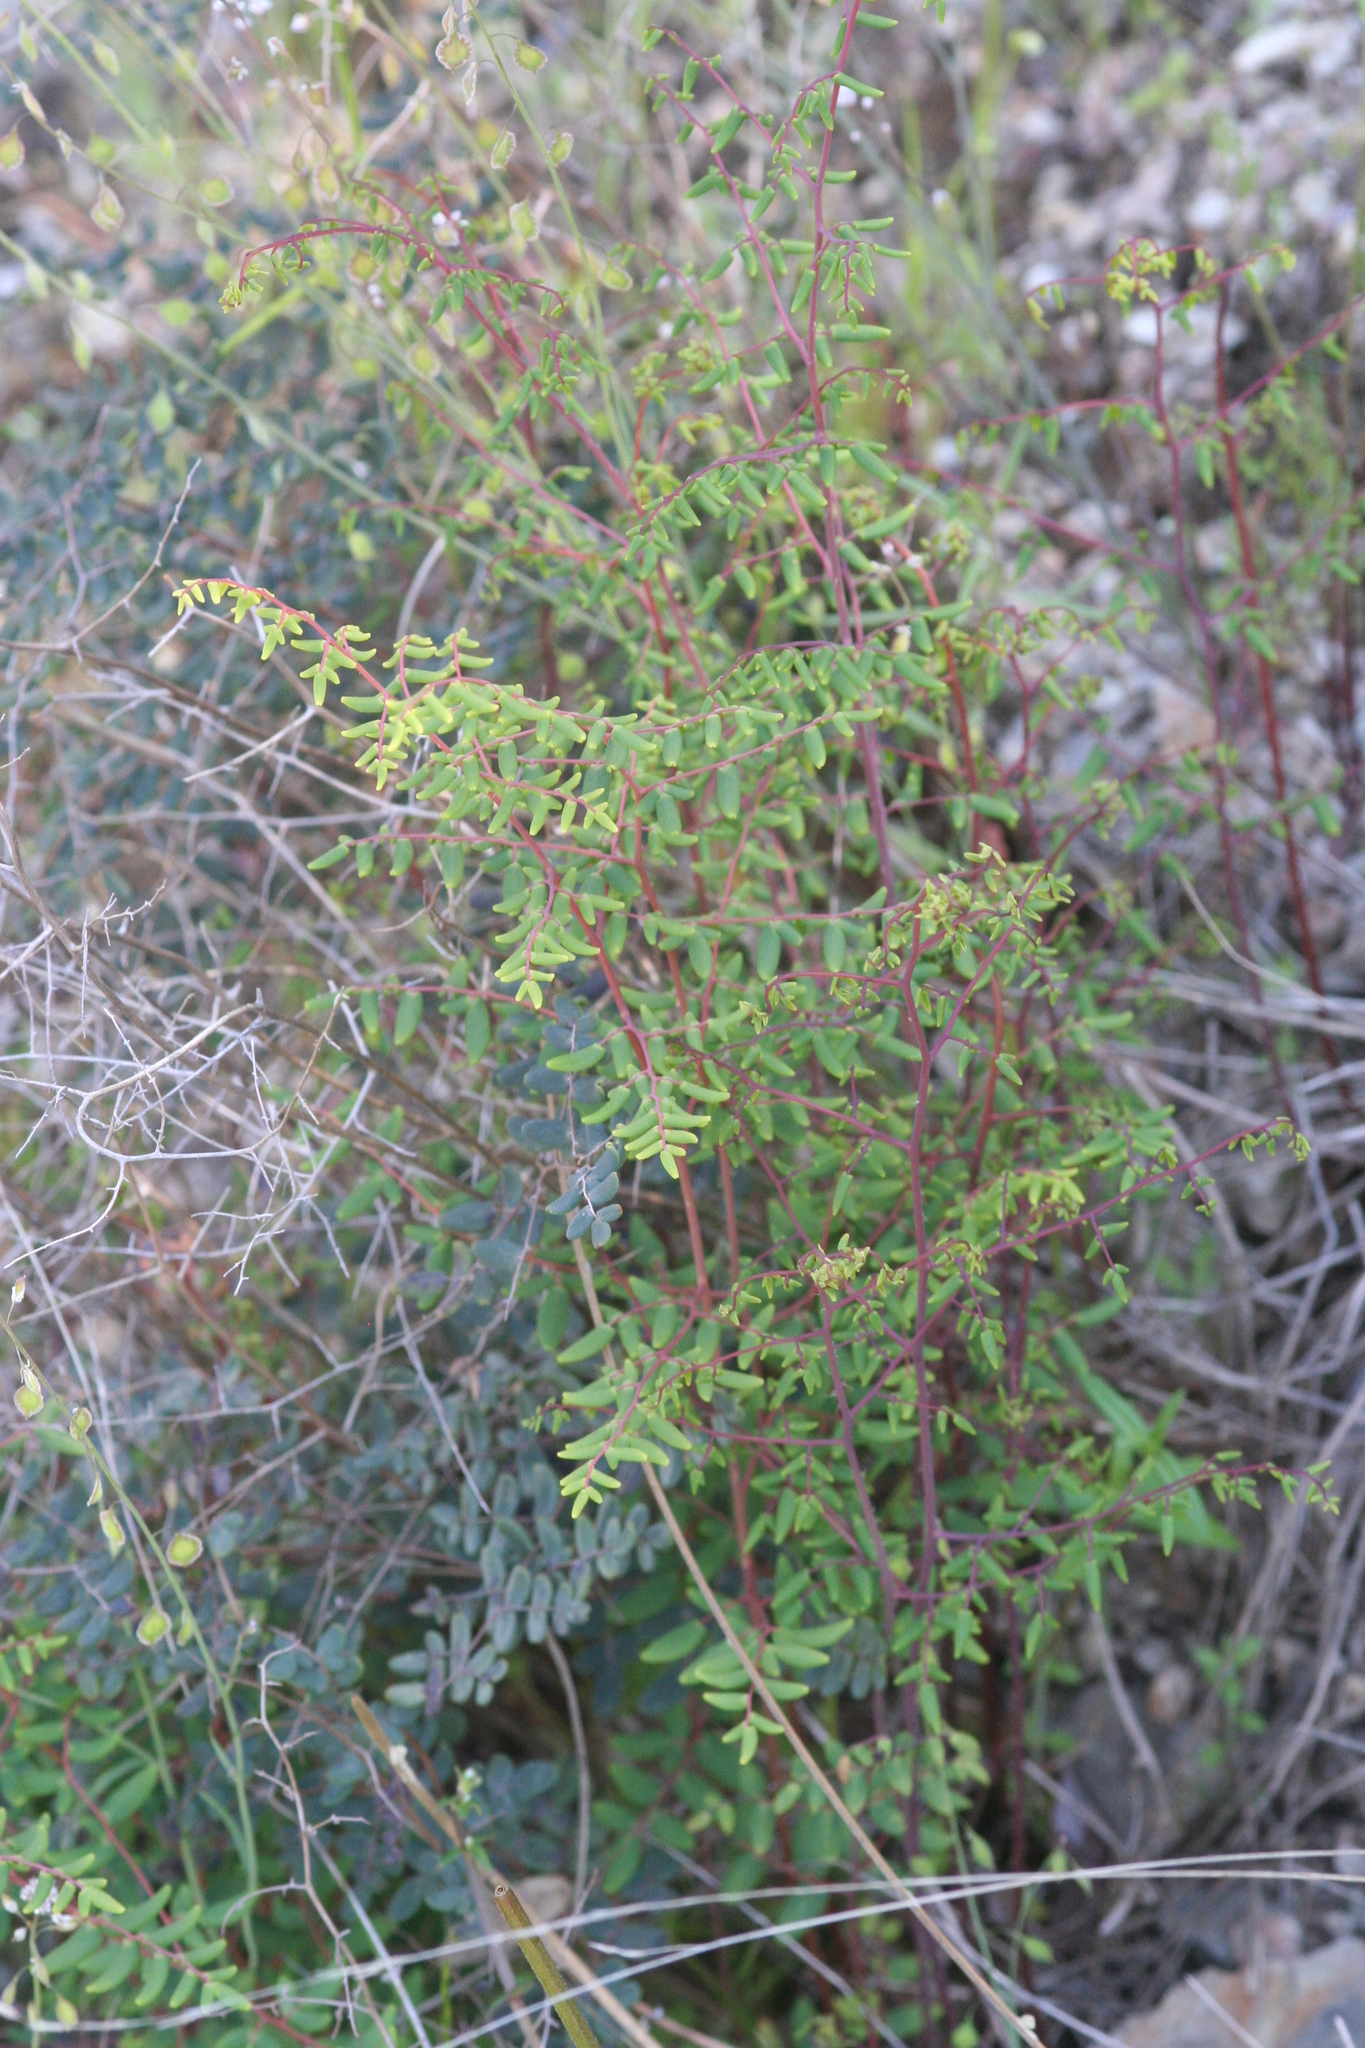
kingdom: Plantae
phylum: Tracheophyta
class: Polypodiopsida
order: Polypodiales
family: Pteridaceae
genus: Pellaea
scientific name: Pellaea andromedifolia
